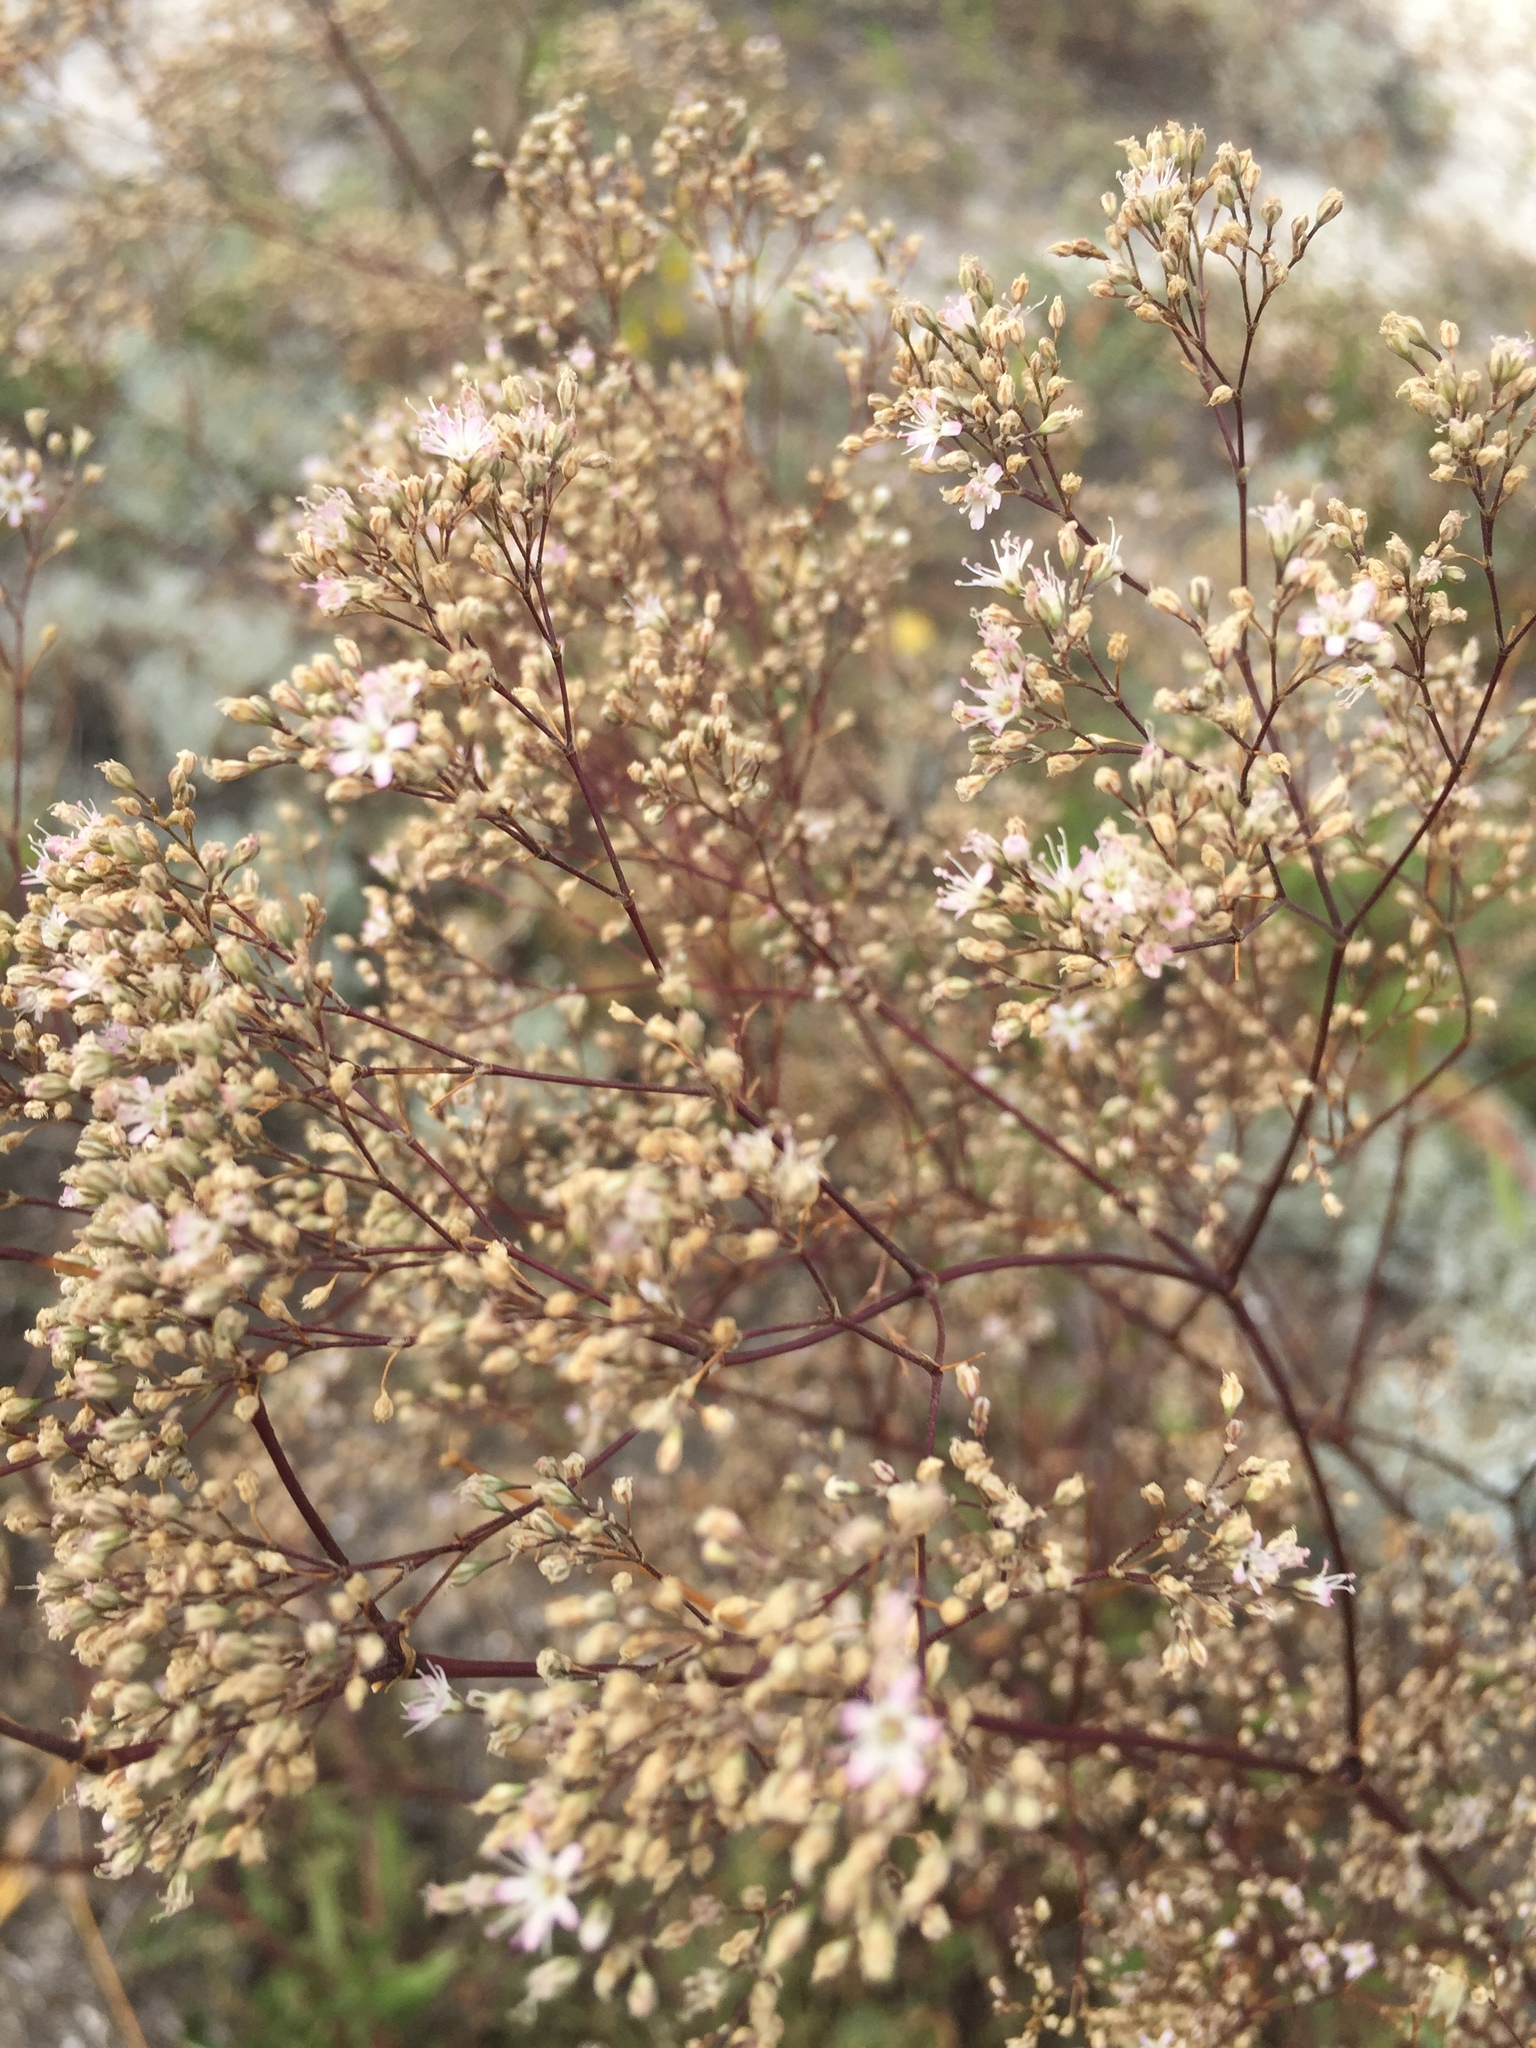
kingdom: Plantae
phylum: Tracheophyta
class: Magnoliopsida
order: Caryophyllales
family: Caryophyllaceae
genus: Gypsophila
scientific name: Gypsophila altissima
